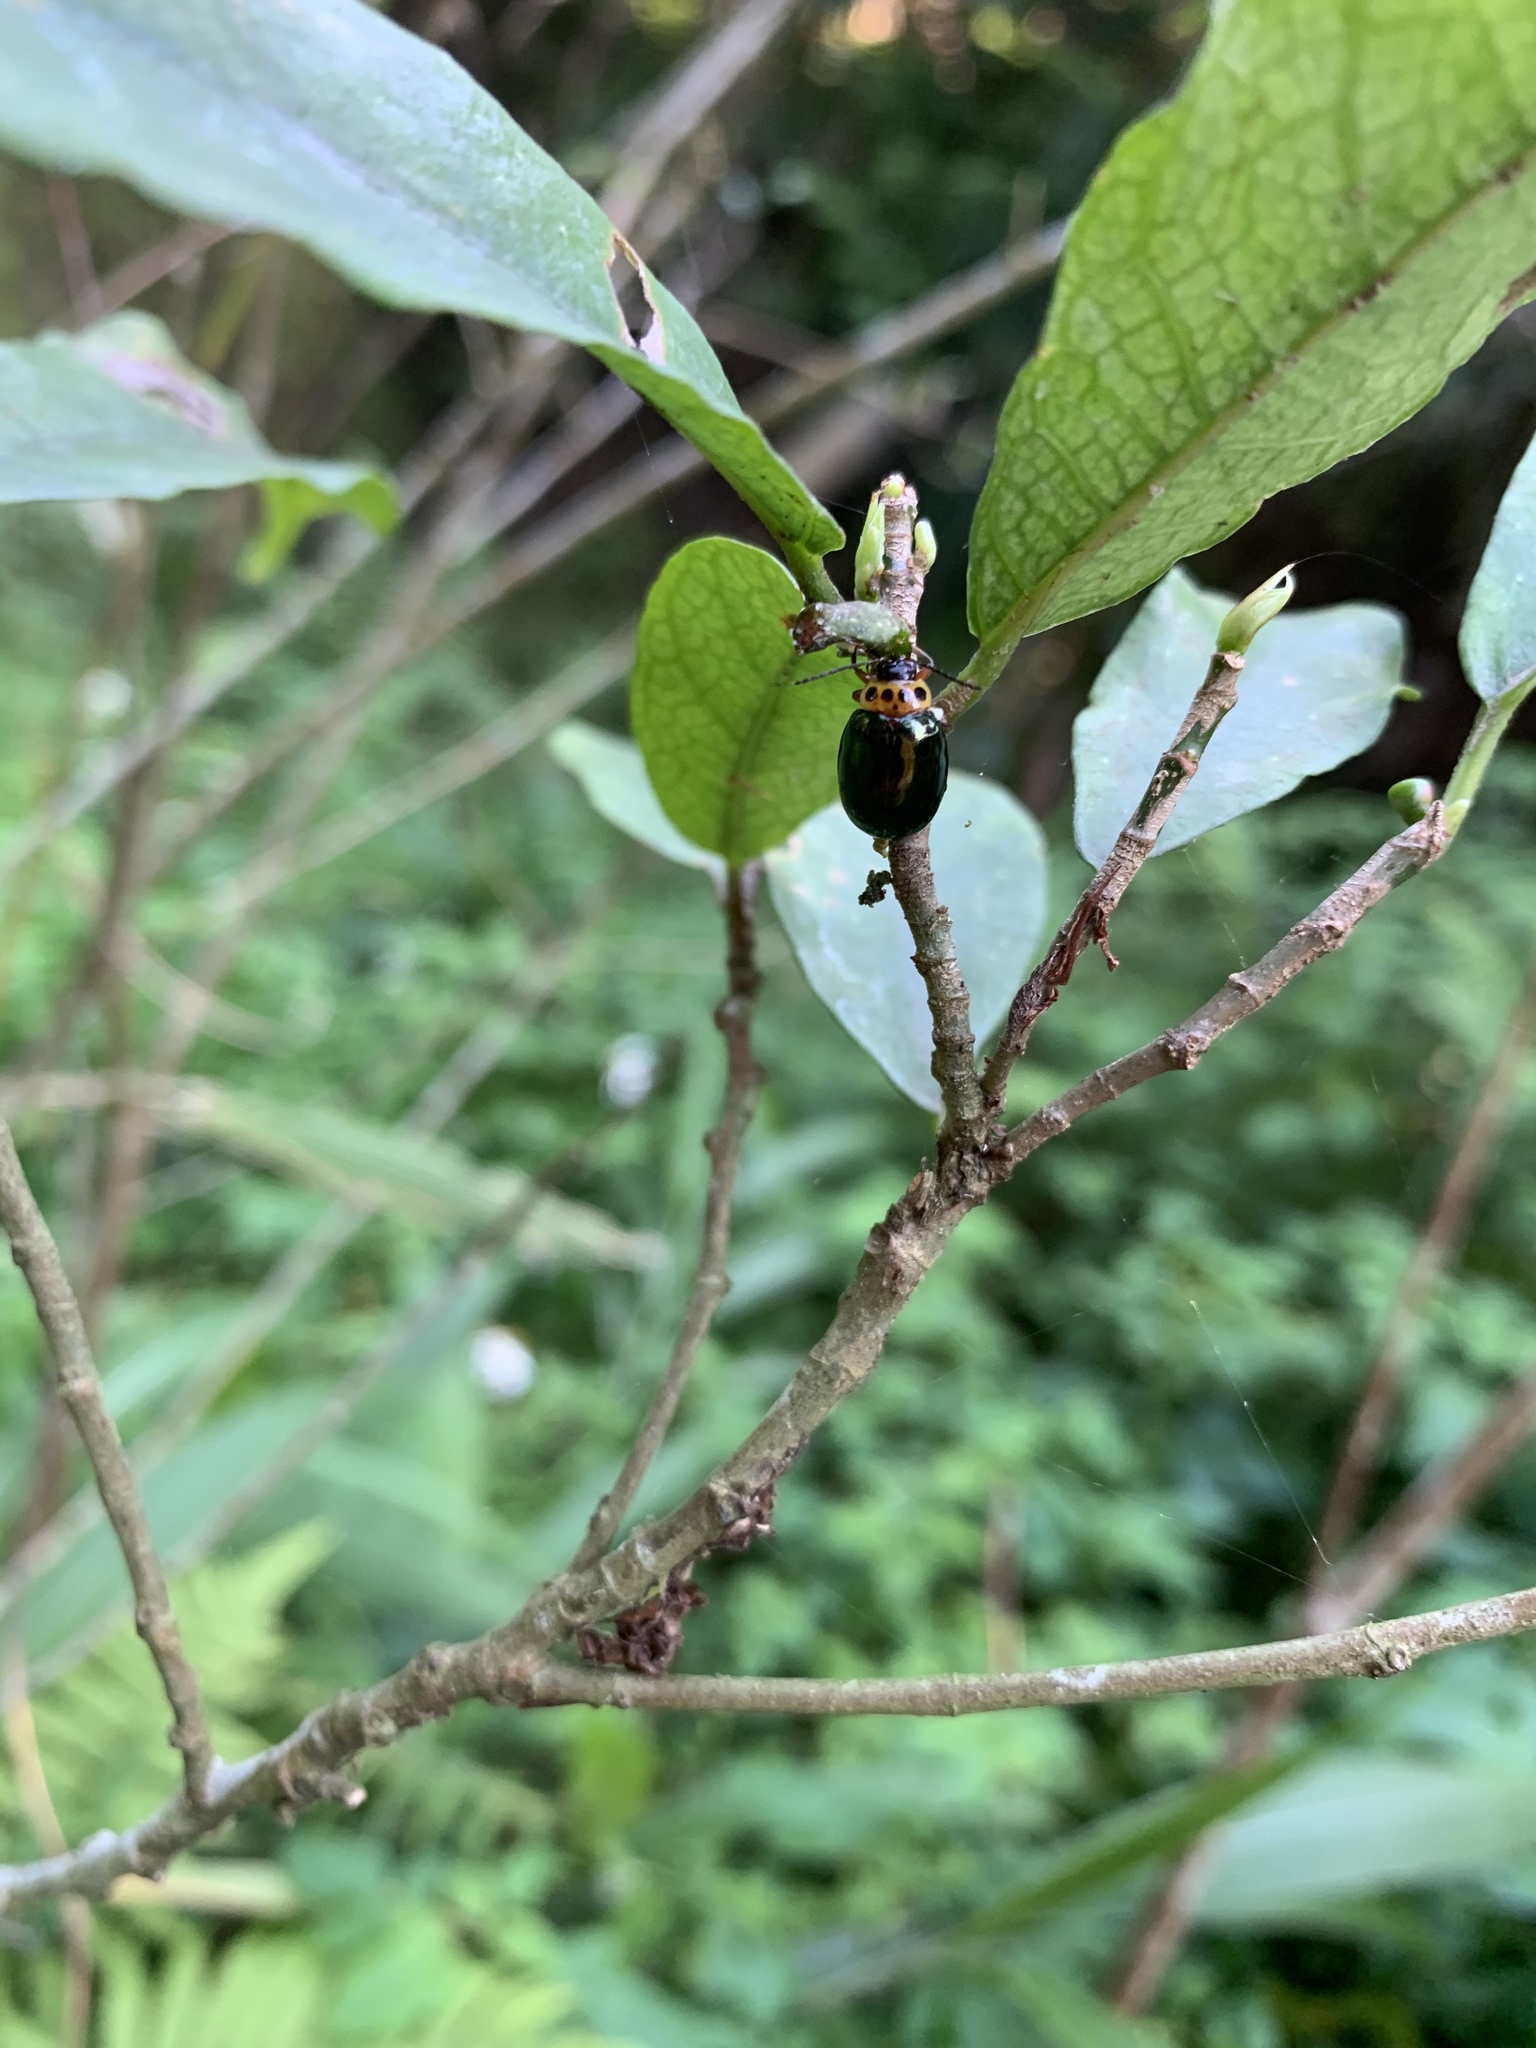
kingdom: Animalia
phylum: Arthropoda
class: Insecta
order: Coleoptera
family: Chrysomelidae
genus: Morphosphaera
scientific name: Morphosphaera chrysomeloides
